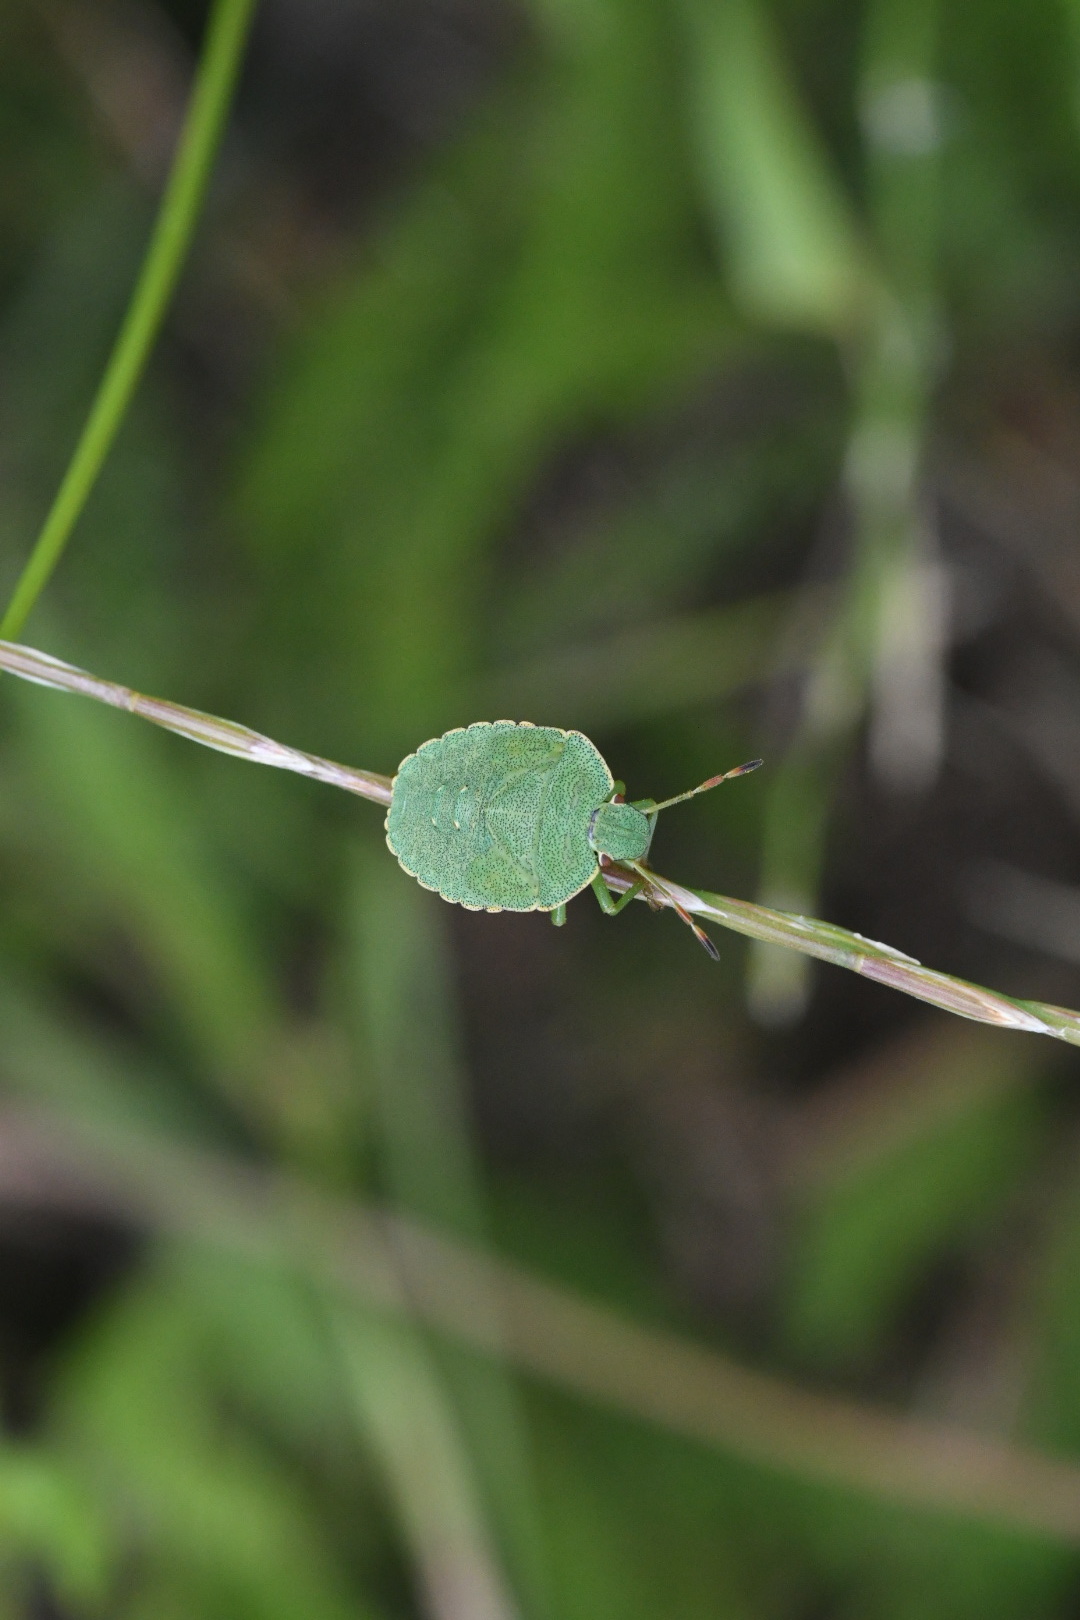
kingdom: Animalia
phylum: Arthropoda
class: Insecta
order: Hemiptera
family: Pentatomidae
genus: Palomena
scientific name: Palomena prasina
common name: Green shieldbug
